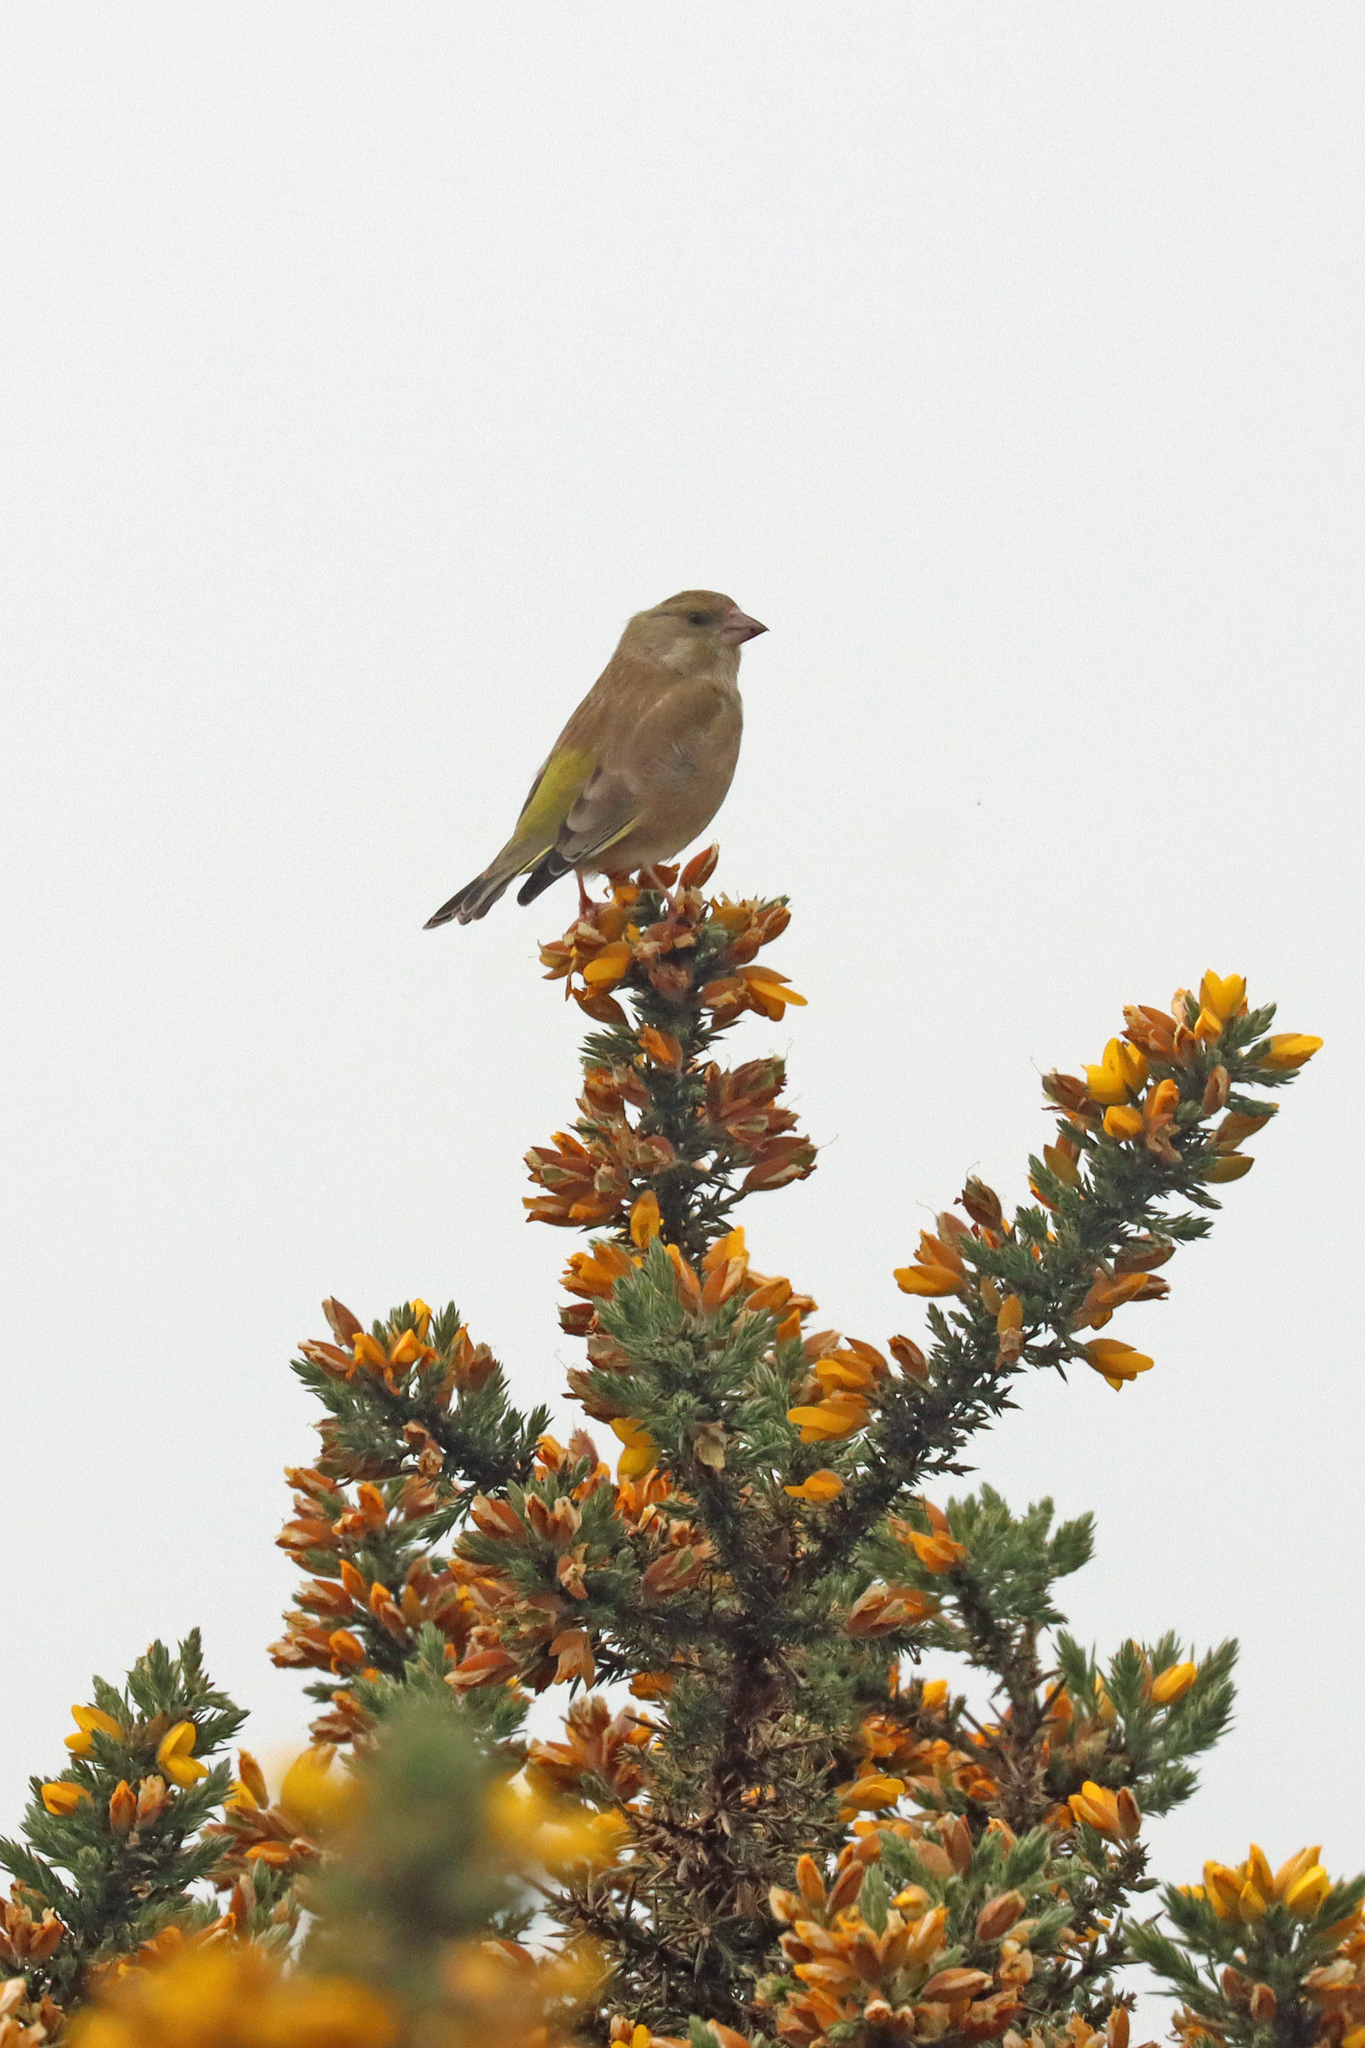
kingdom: Plantae
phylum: Tracheophyta
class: Liliopsida
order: Poales
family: Poaceae
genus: Chloris
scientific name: Chloris chloris
